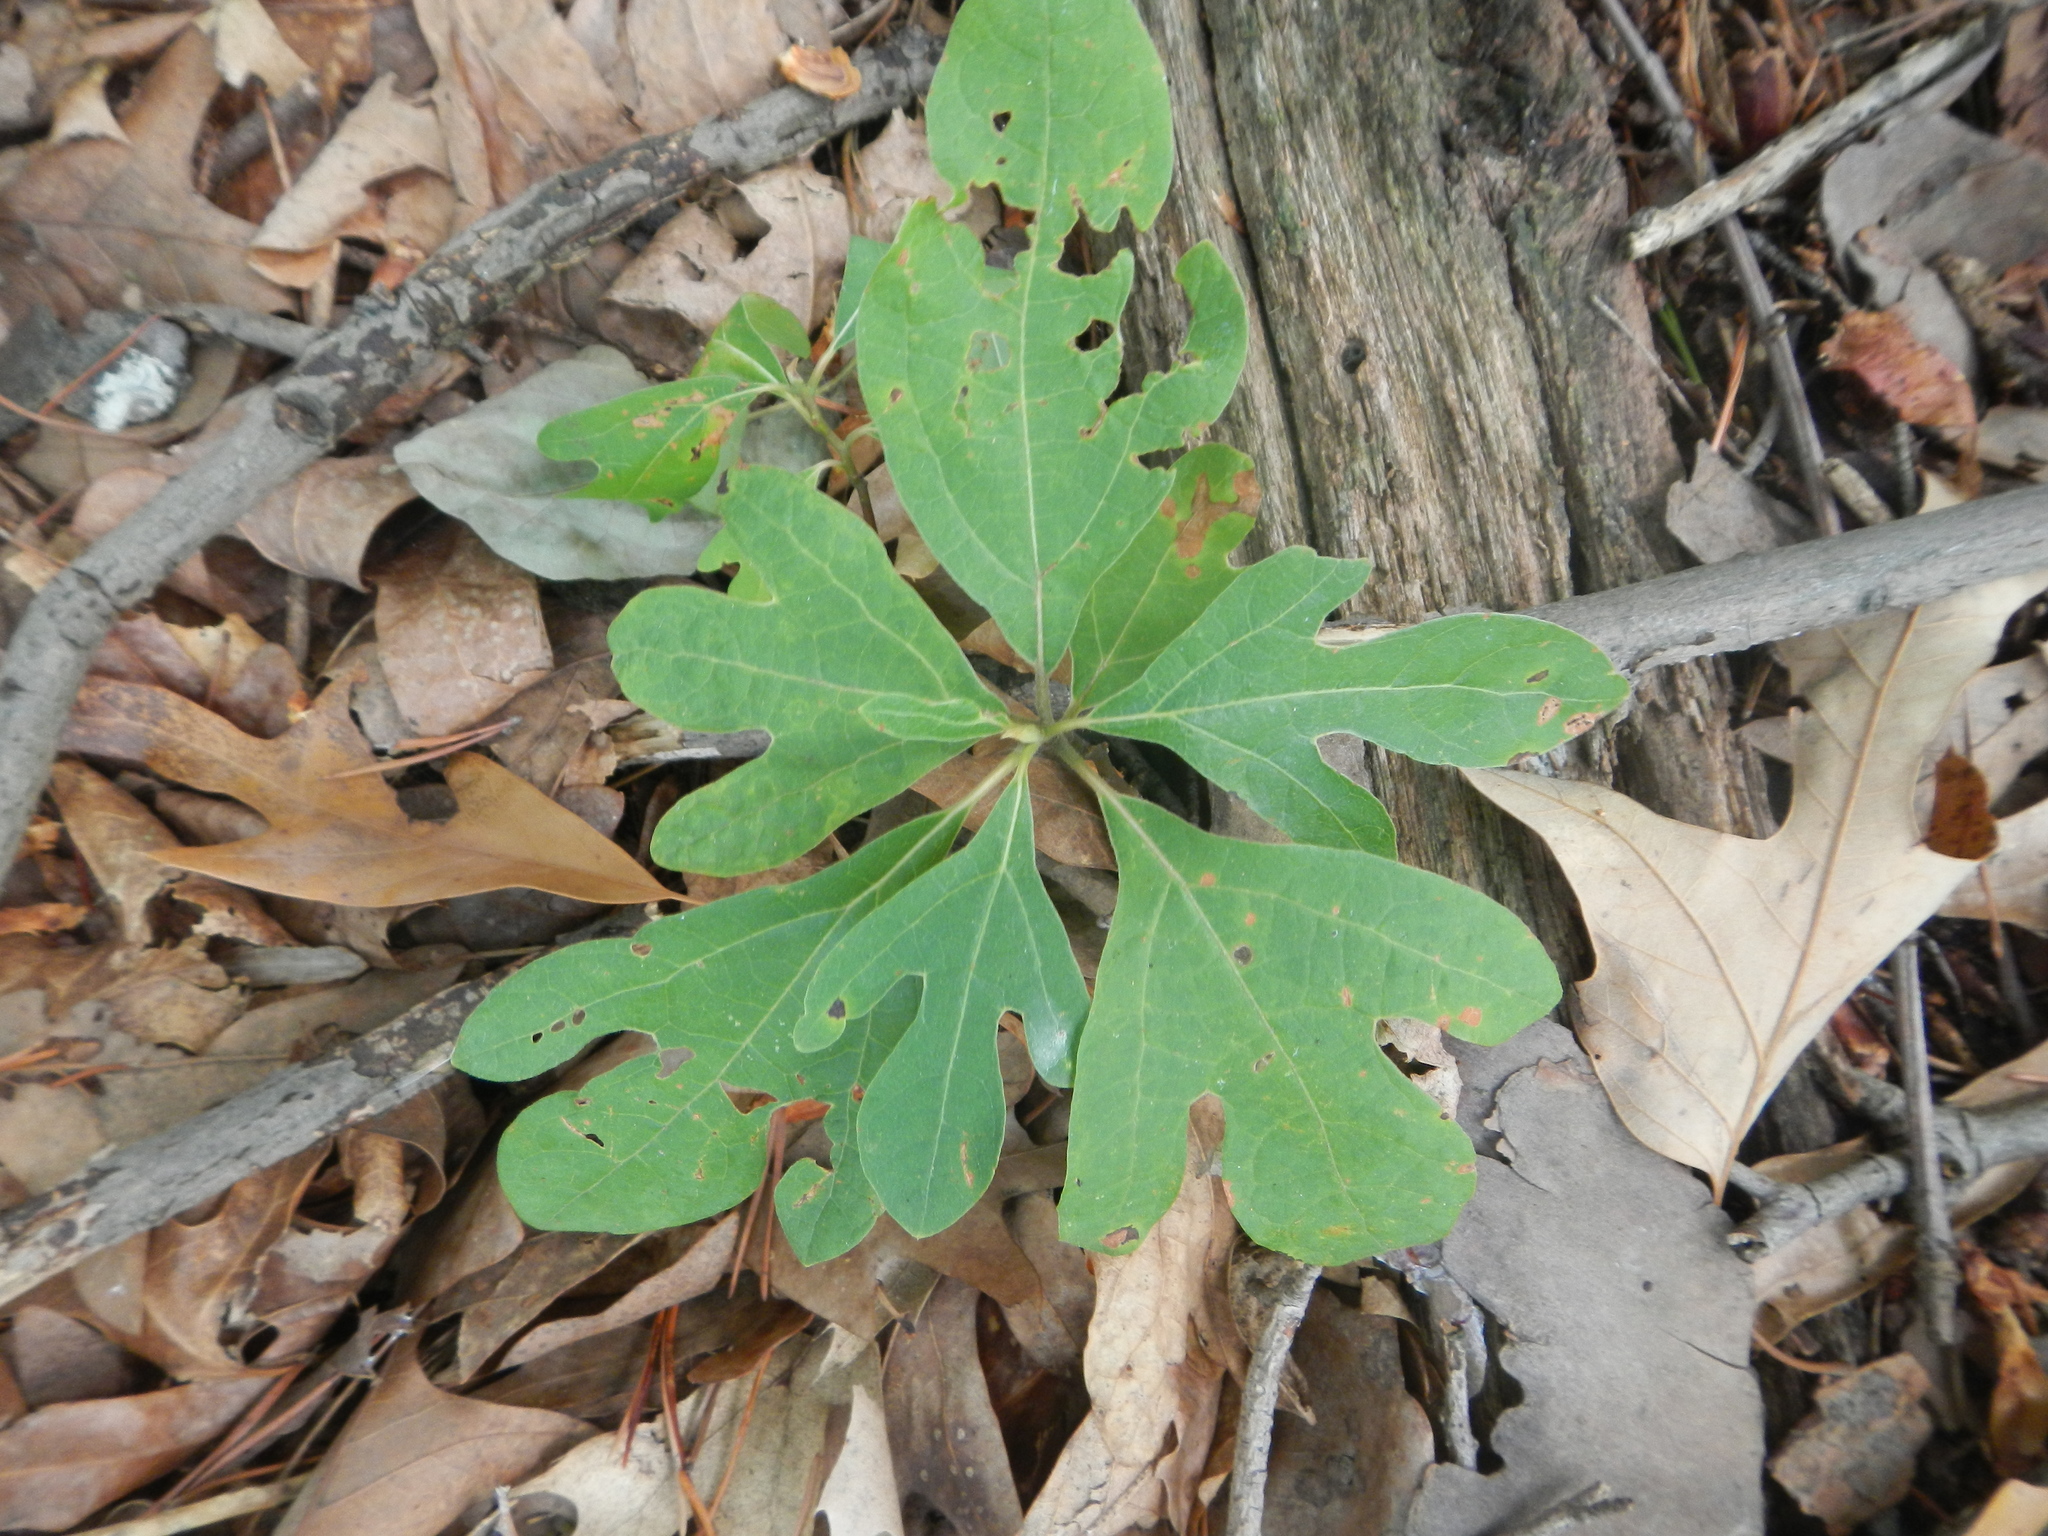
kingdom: Plantae
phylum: Tracheophyta
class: Magnoliopsida
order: Laurales
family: Lauraceae
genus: Sassafras
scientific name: Sassafras albidum
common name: Sassafras
